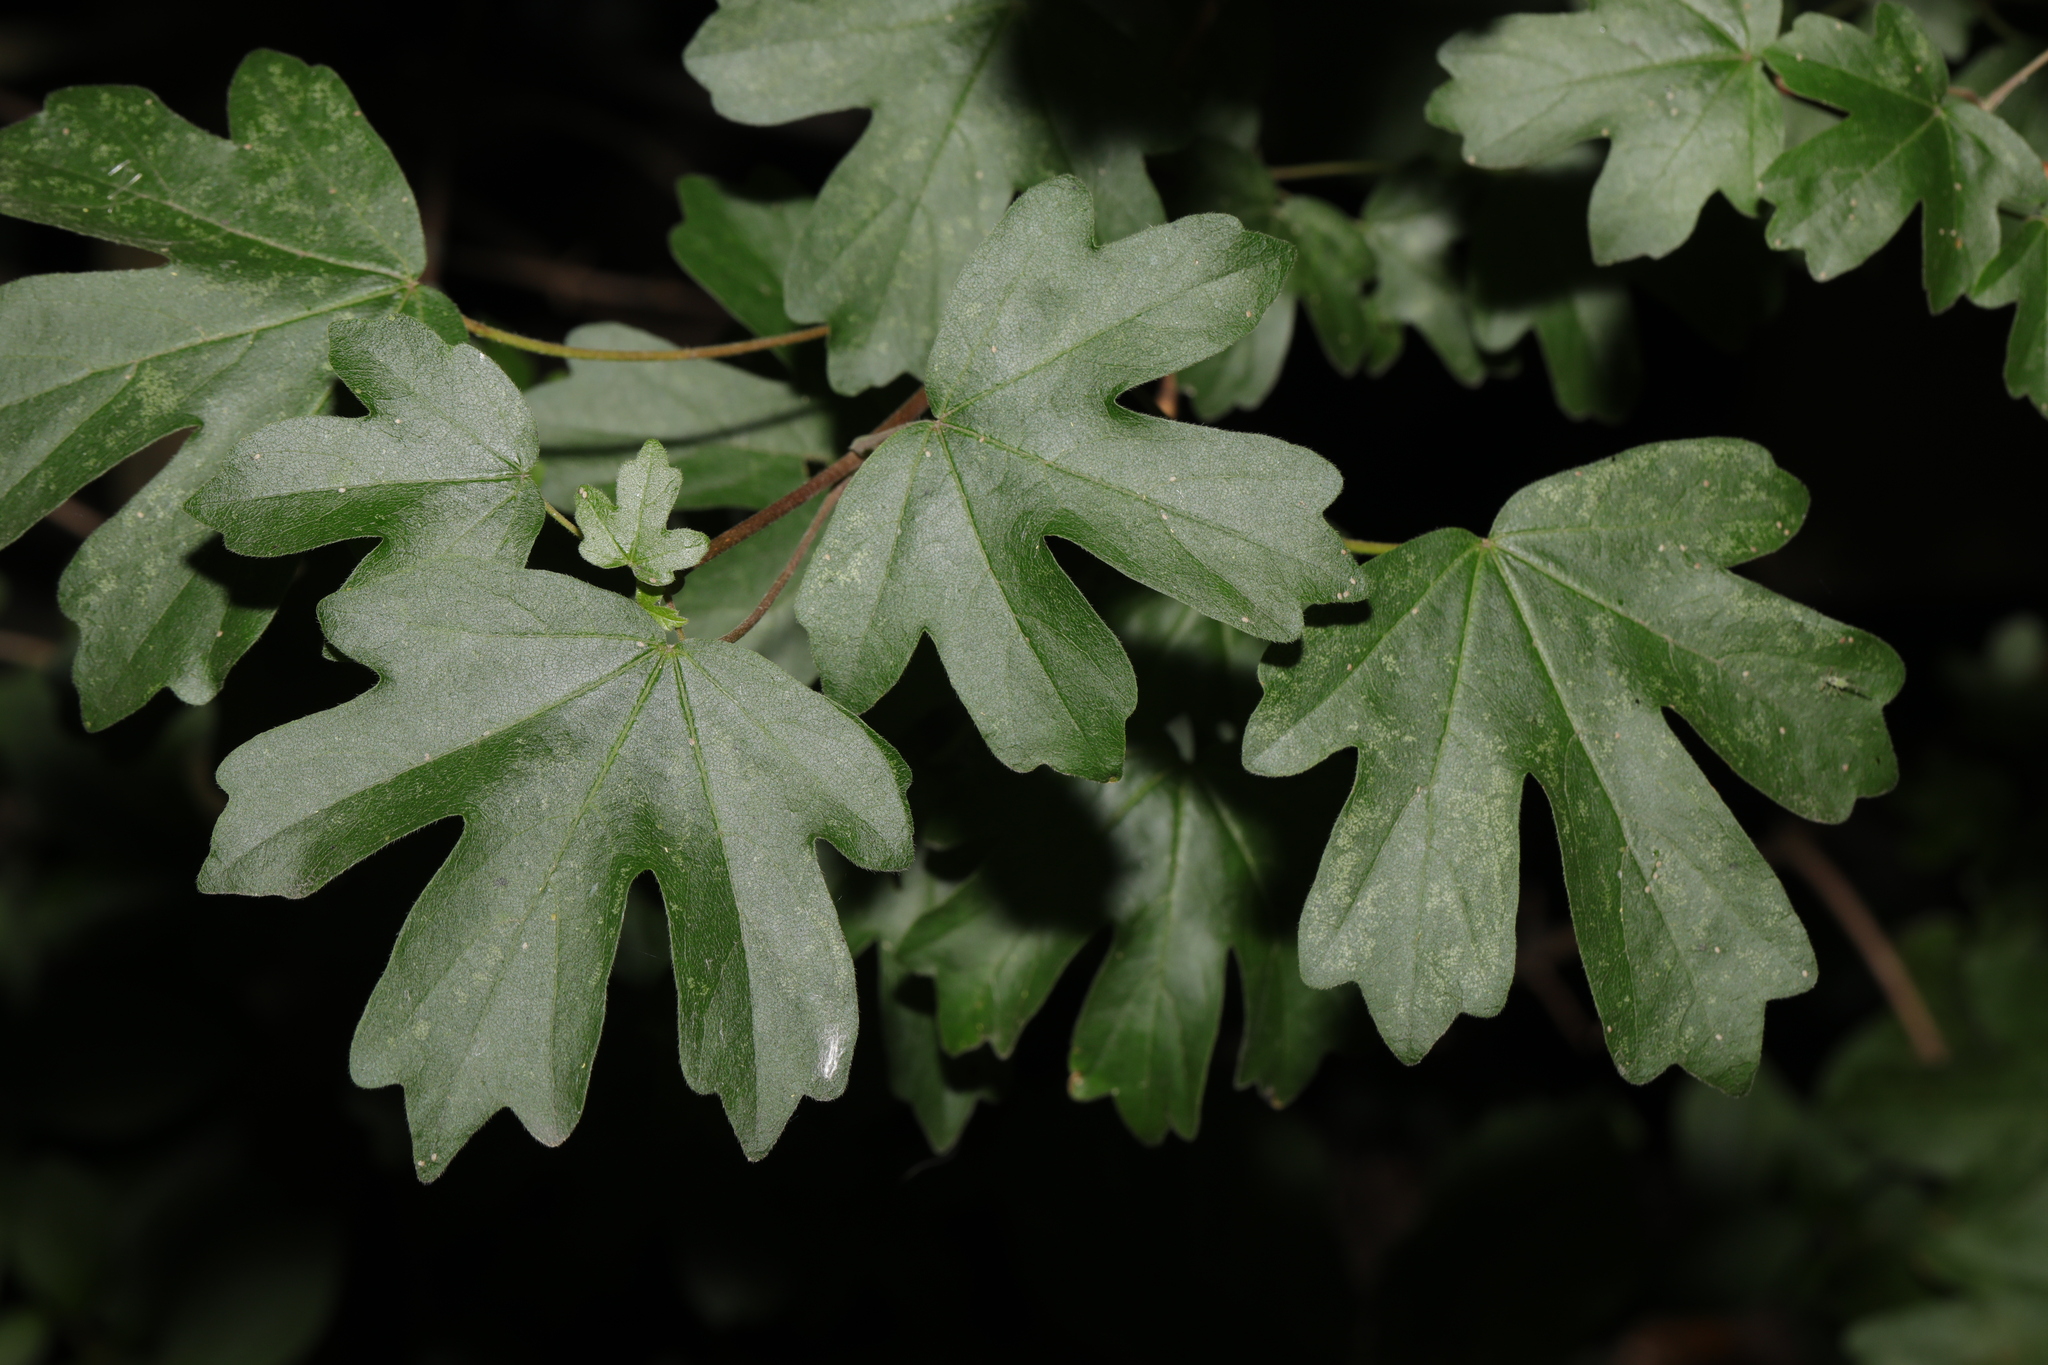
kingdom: Plantae
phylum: Tracheophyta
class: Magnoliopsida
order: Sapindales
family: Sapindaceae
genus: Acer
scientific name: Acer campestre
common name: Field maple
